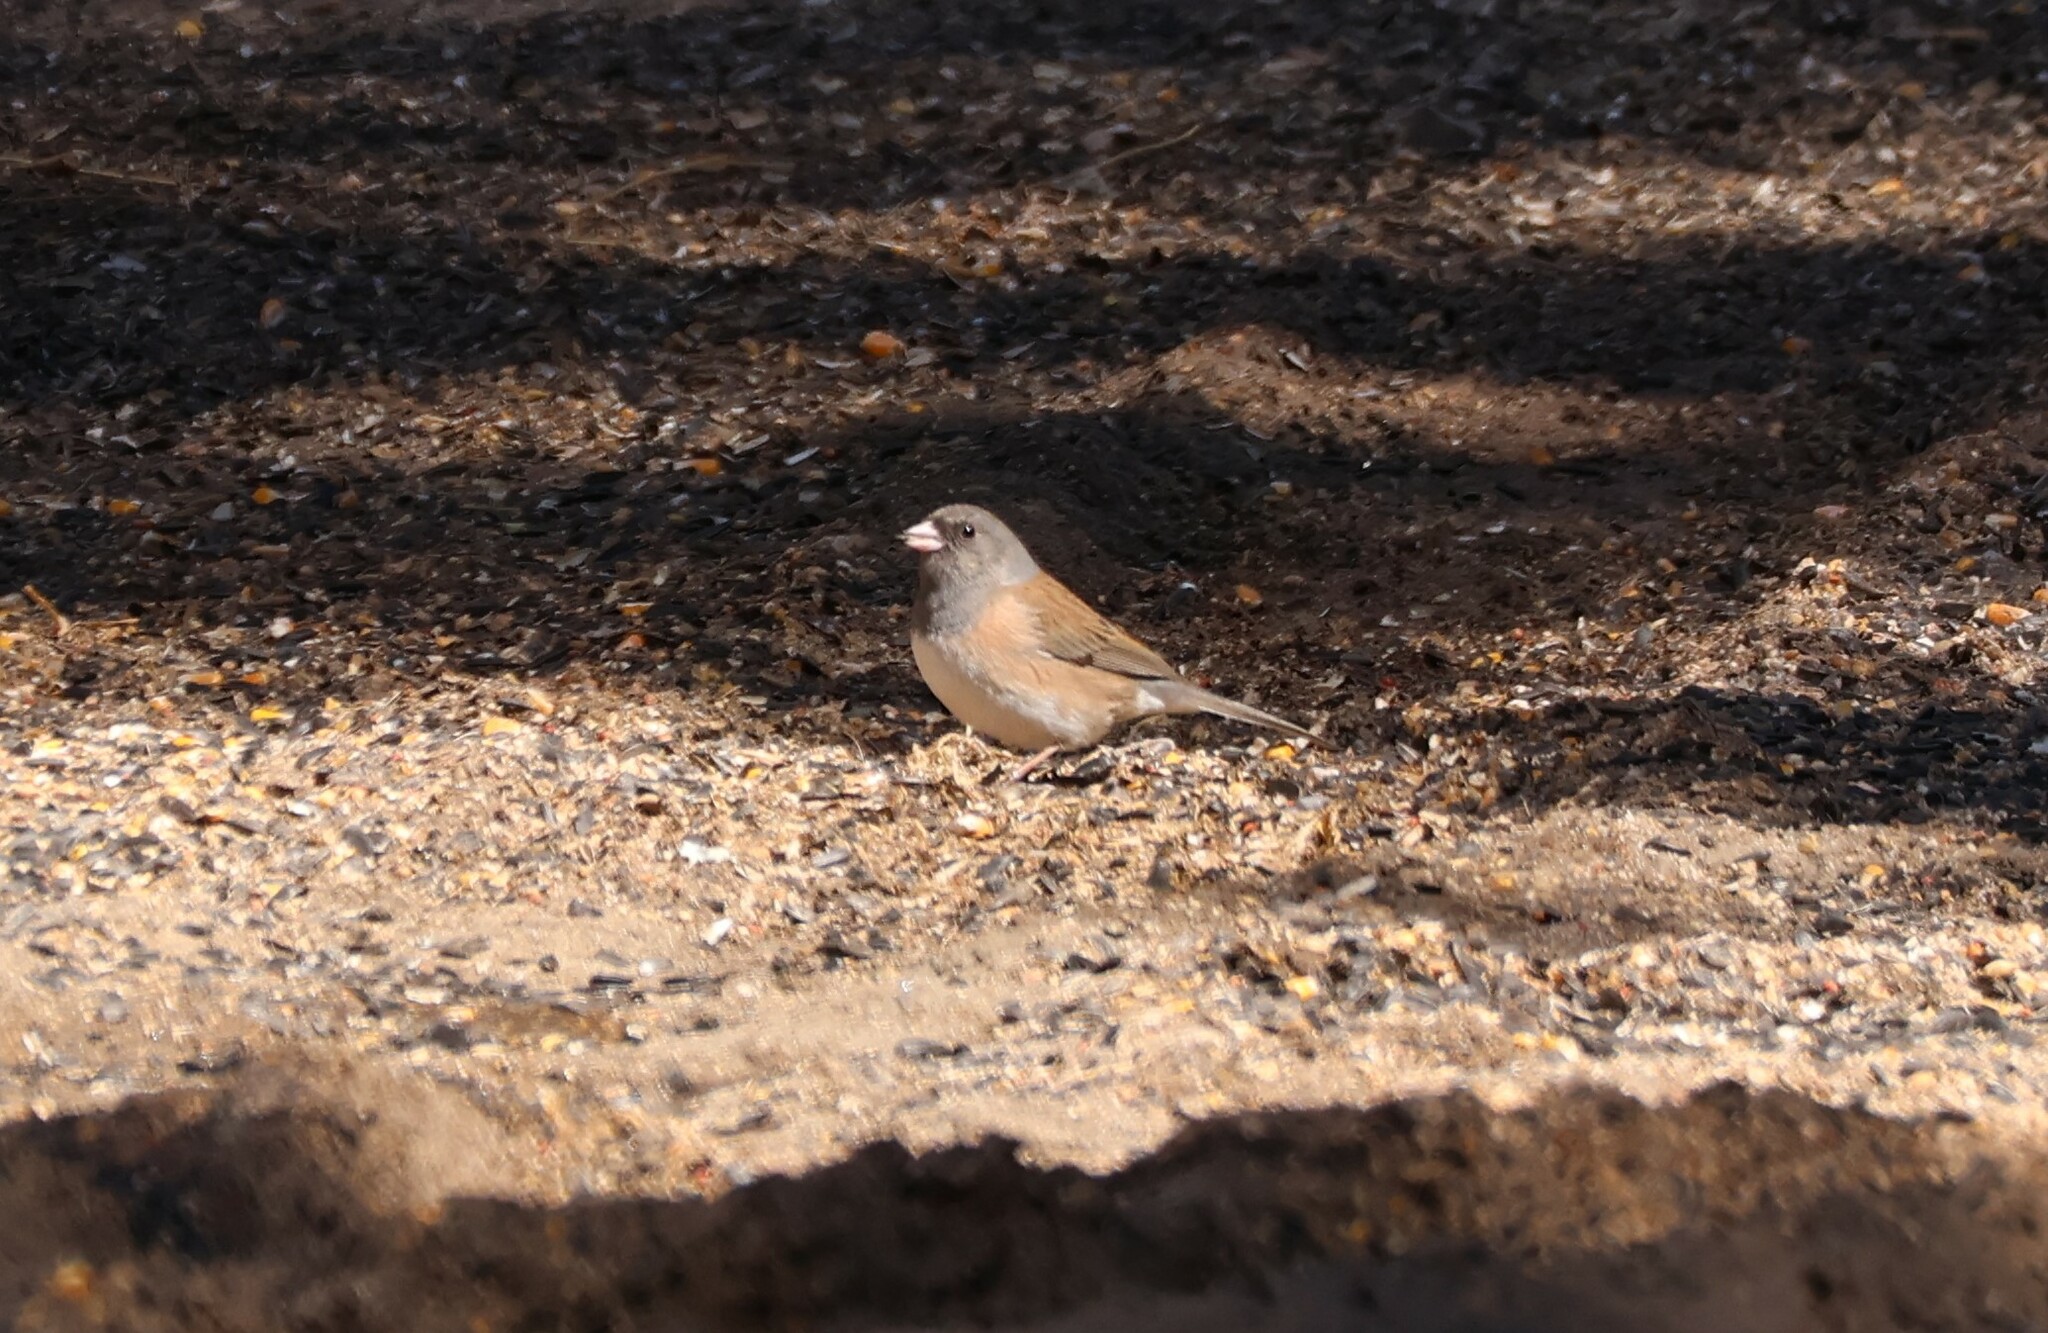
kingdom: Animalia
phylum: Chordata
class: Aves
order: Passeriformes
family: Passerellidae
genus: Junco
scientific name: Junco hyemalis
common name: Dark-eyed junco
